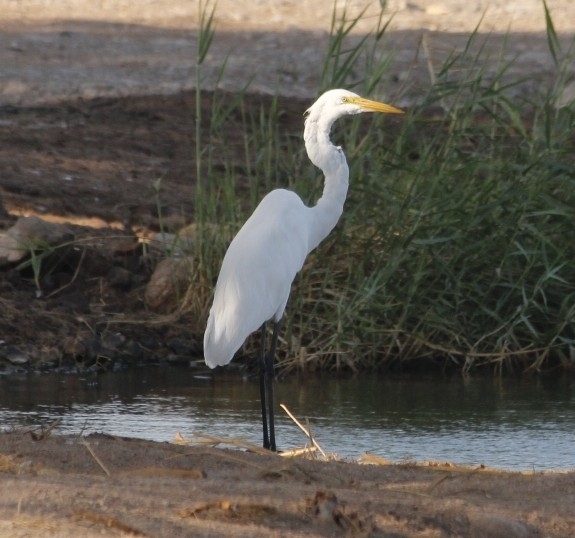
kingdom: Animalia
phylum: Chordata
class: Aves
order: Pelecaniformes
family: Ardeidae
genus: Ardea
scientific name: Ardea alba
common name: Great egret
